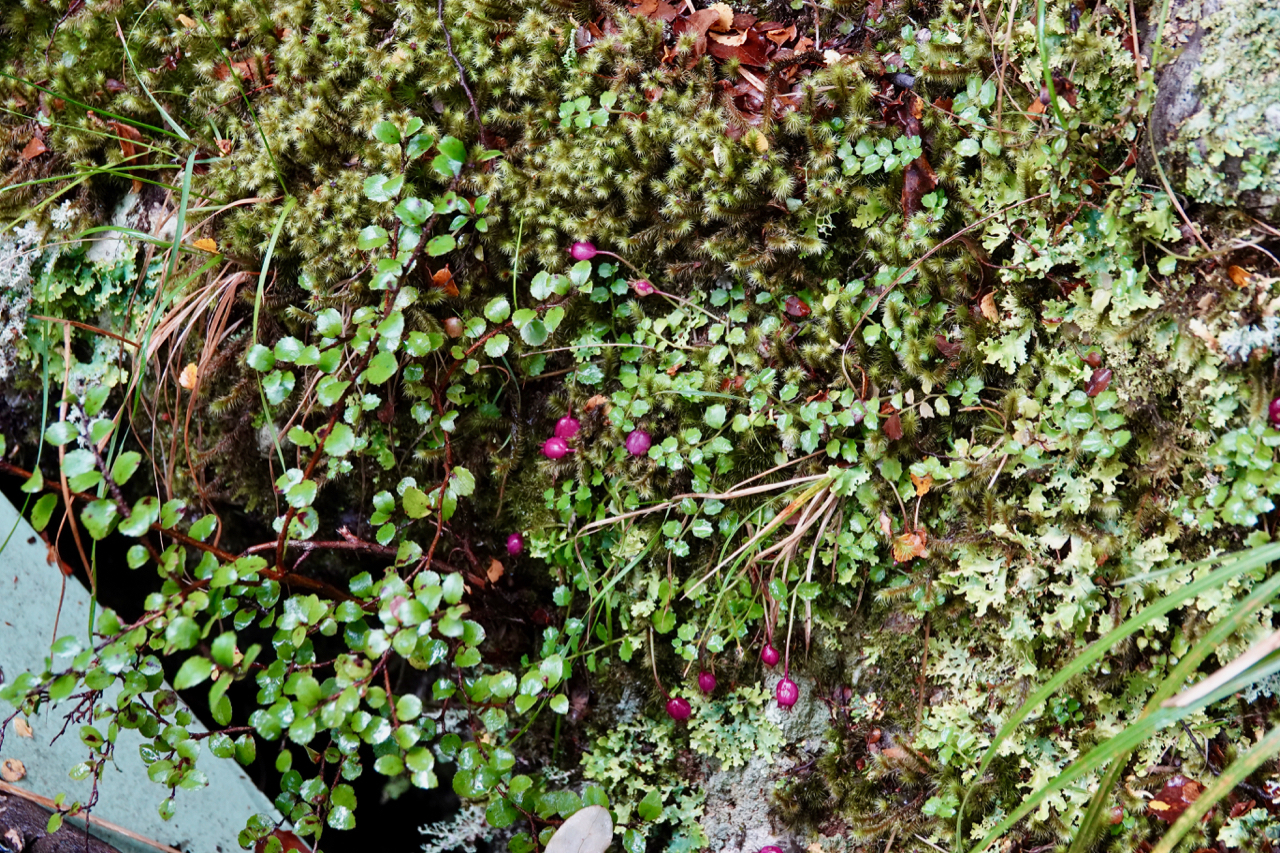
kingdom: Plantae
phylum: Tracheophyta
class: Magnoliopsida
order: Asterales
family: Campanulaceae
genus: Lobelia
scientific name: Lobelia angulata
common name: Lawn lobelia
